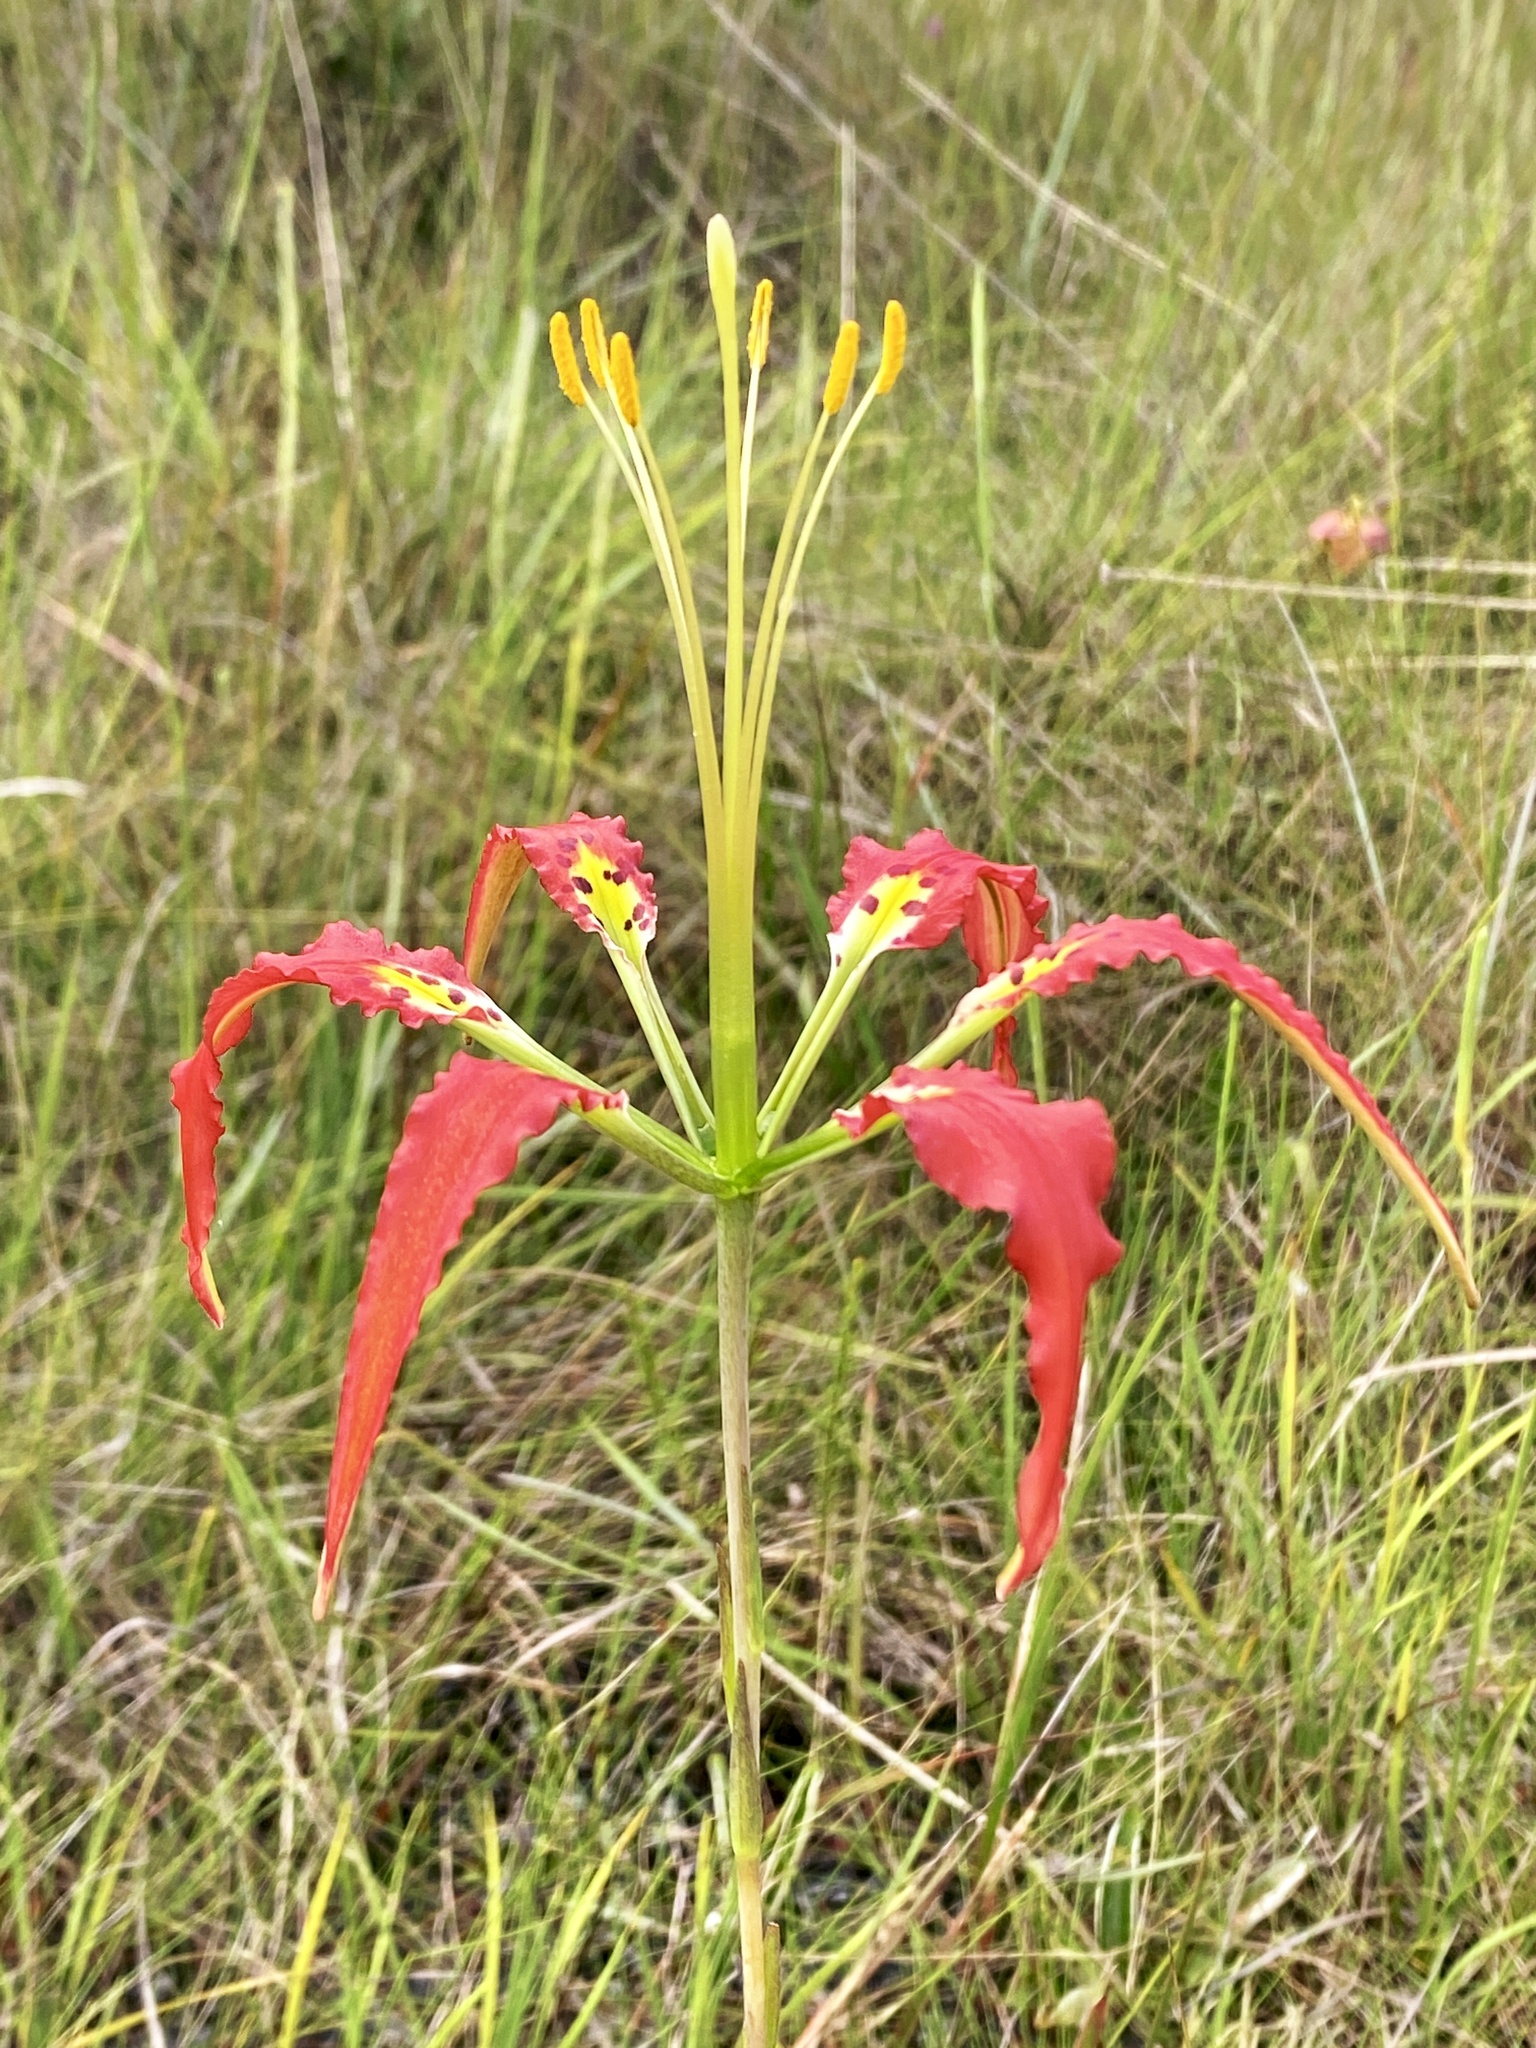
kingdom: Plantae
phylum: Tracheophyta
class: Liliopsida
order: Liliales
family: Liliaceae
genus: Lilium
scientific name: Lilium catesbaei
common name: Catesby's lily
